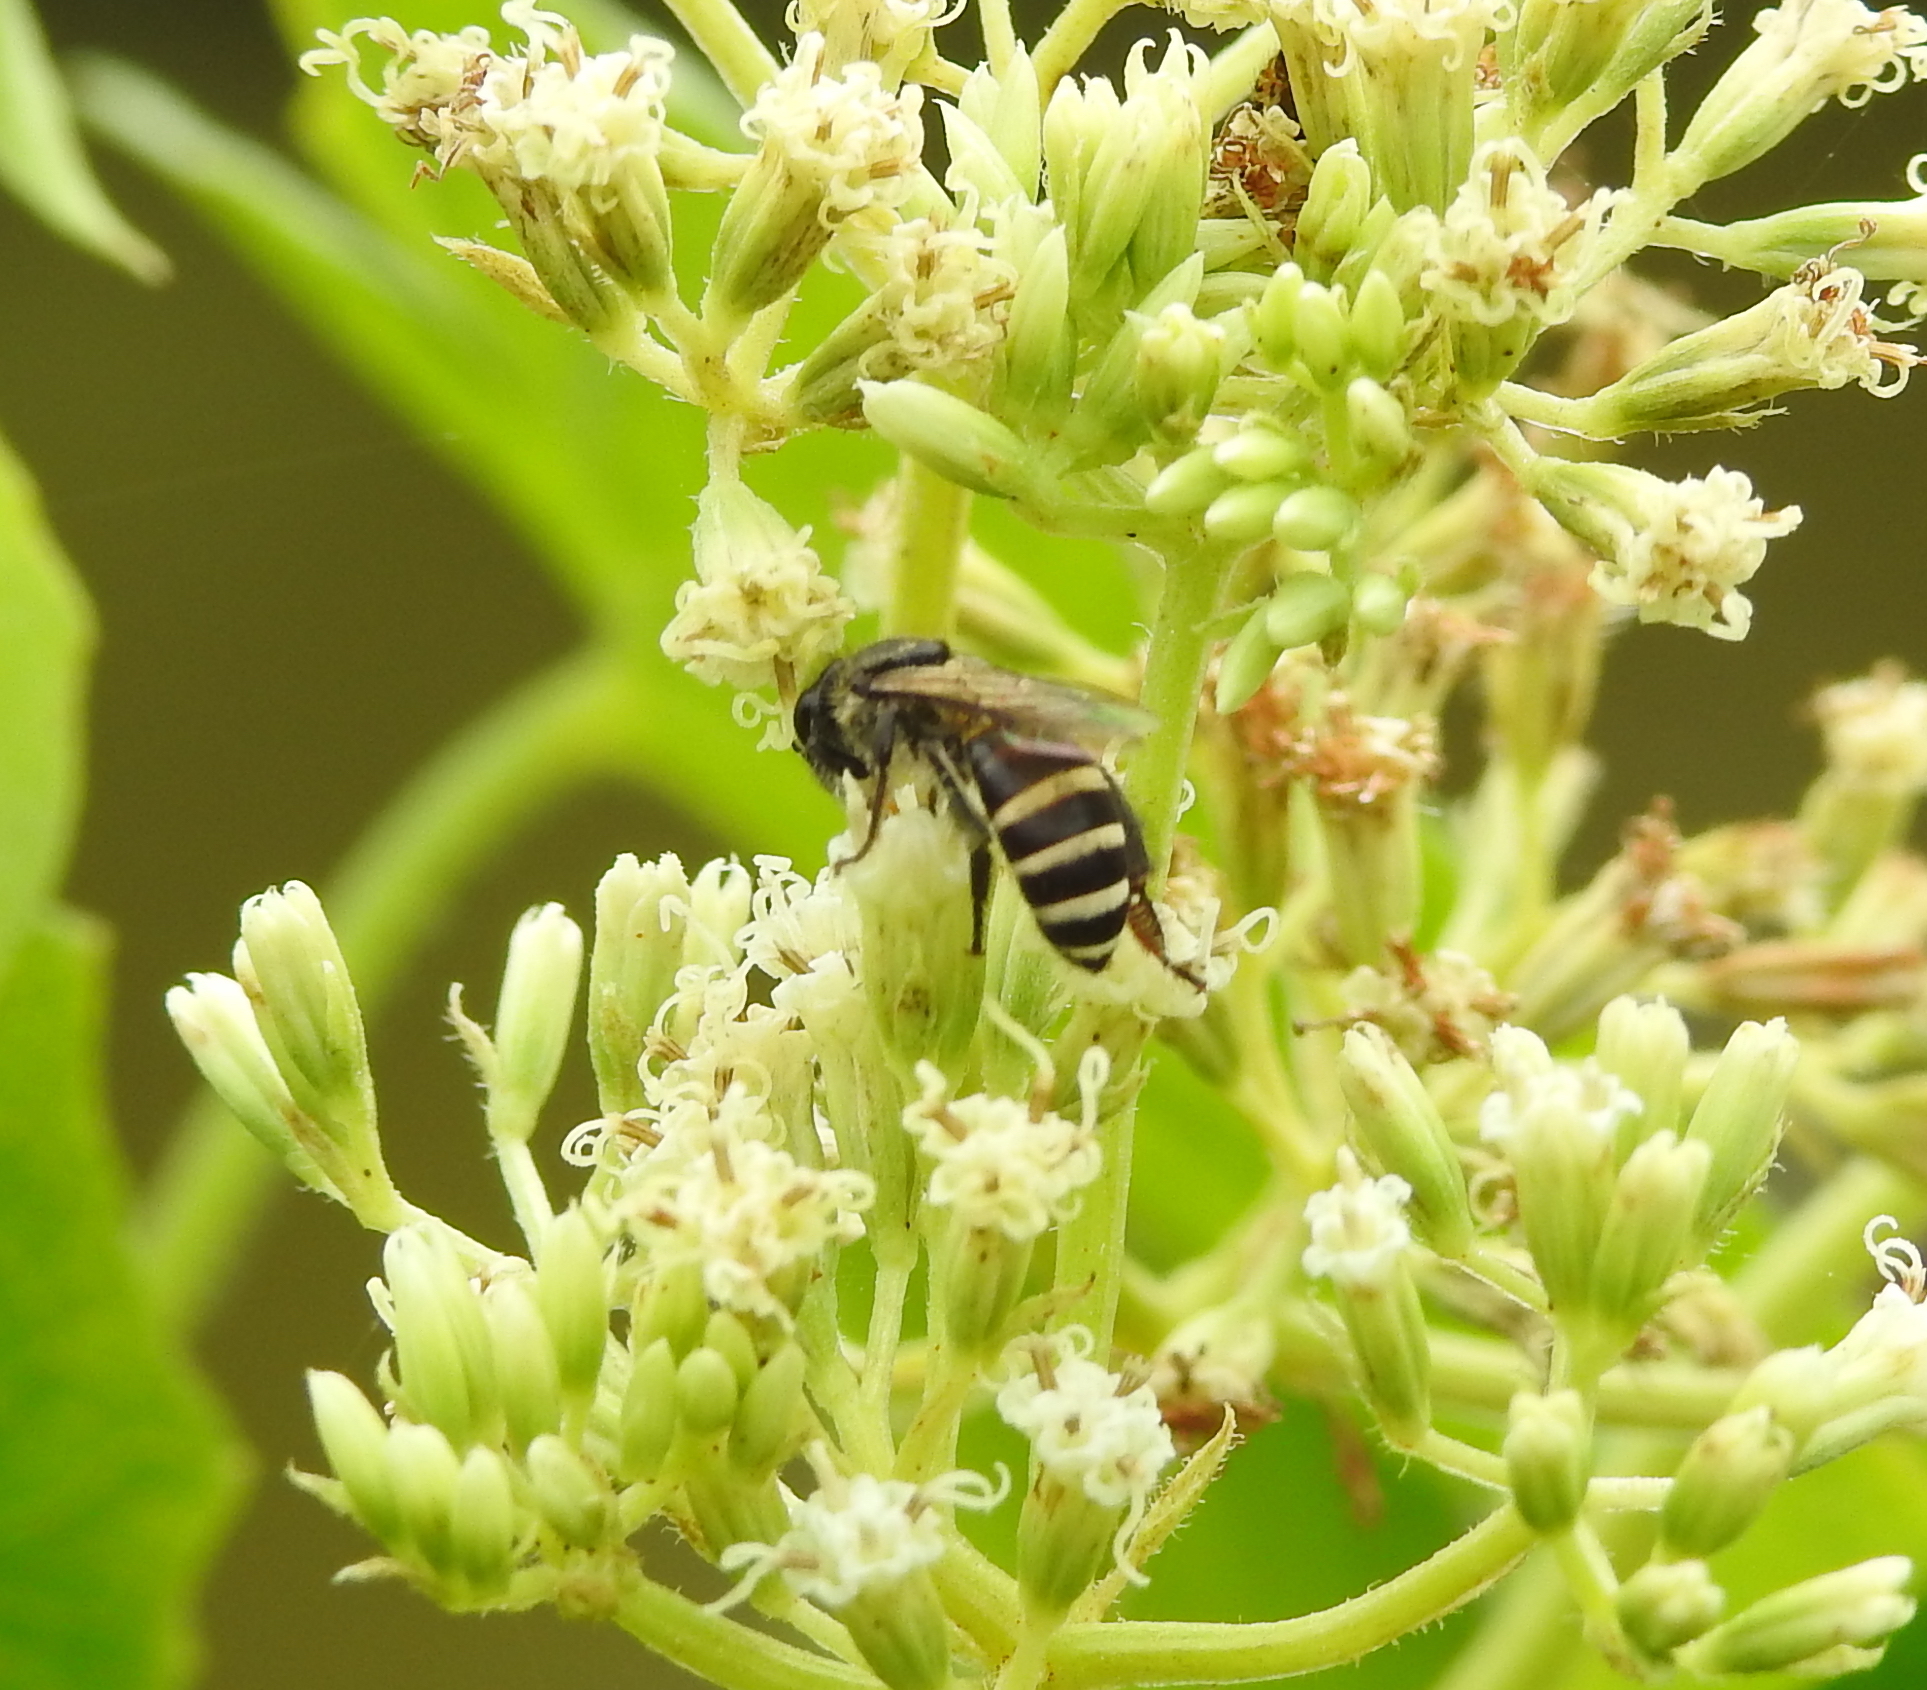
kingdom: Animalia
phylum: Arthropoda
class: Insecta
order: Hymenoptera
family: Apidae
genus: Apis
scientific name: Apis andreniformis
